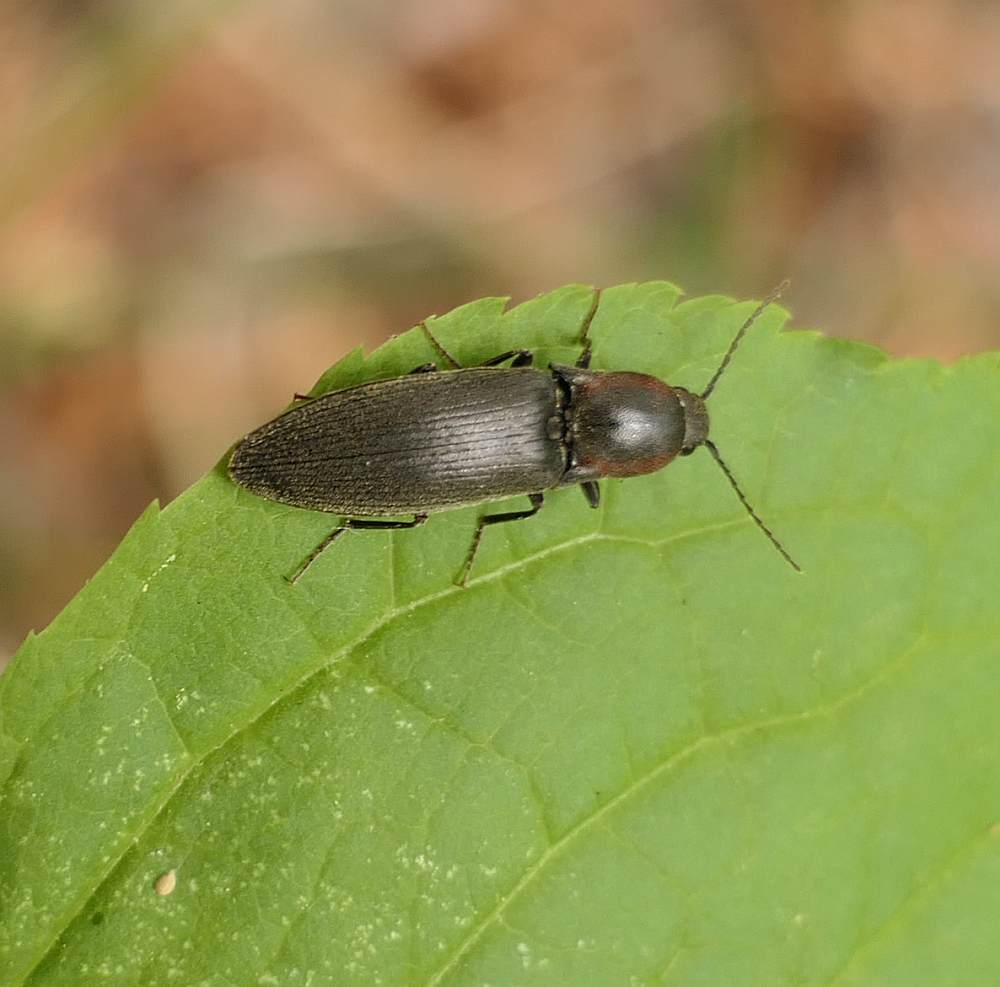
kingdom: Animalia
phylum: Arthropoda
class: Insecta
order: Coleoptera
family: Elateridae
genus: Agriotes
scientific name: Agriotes fucosus
